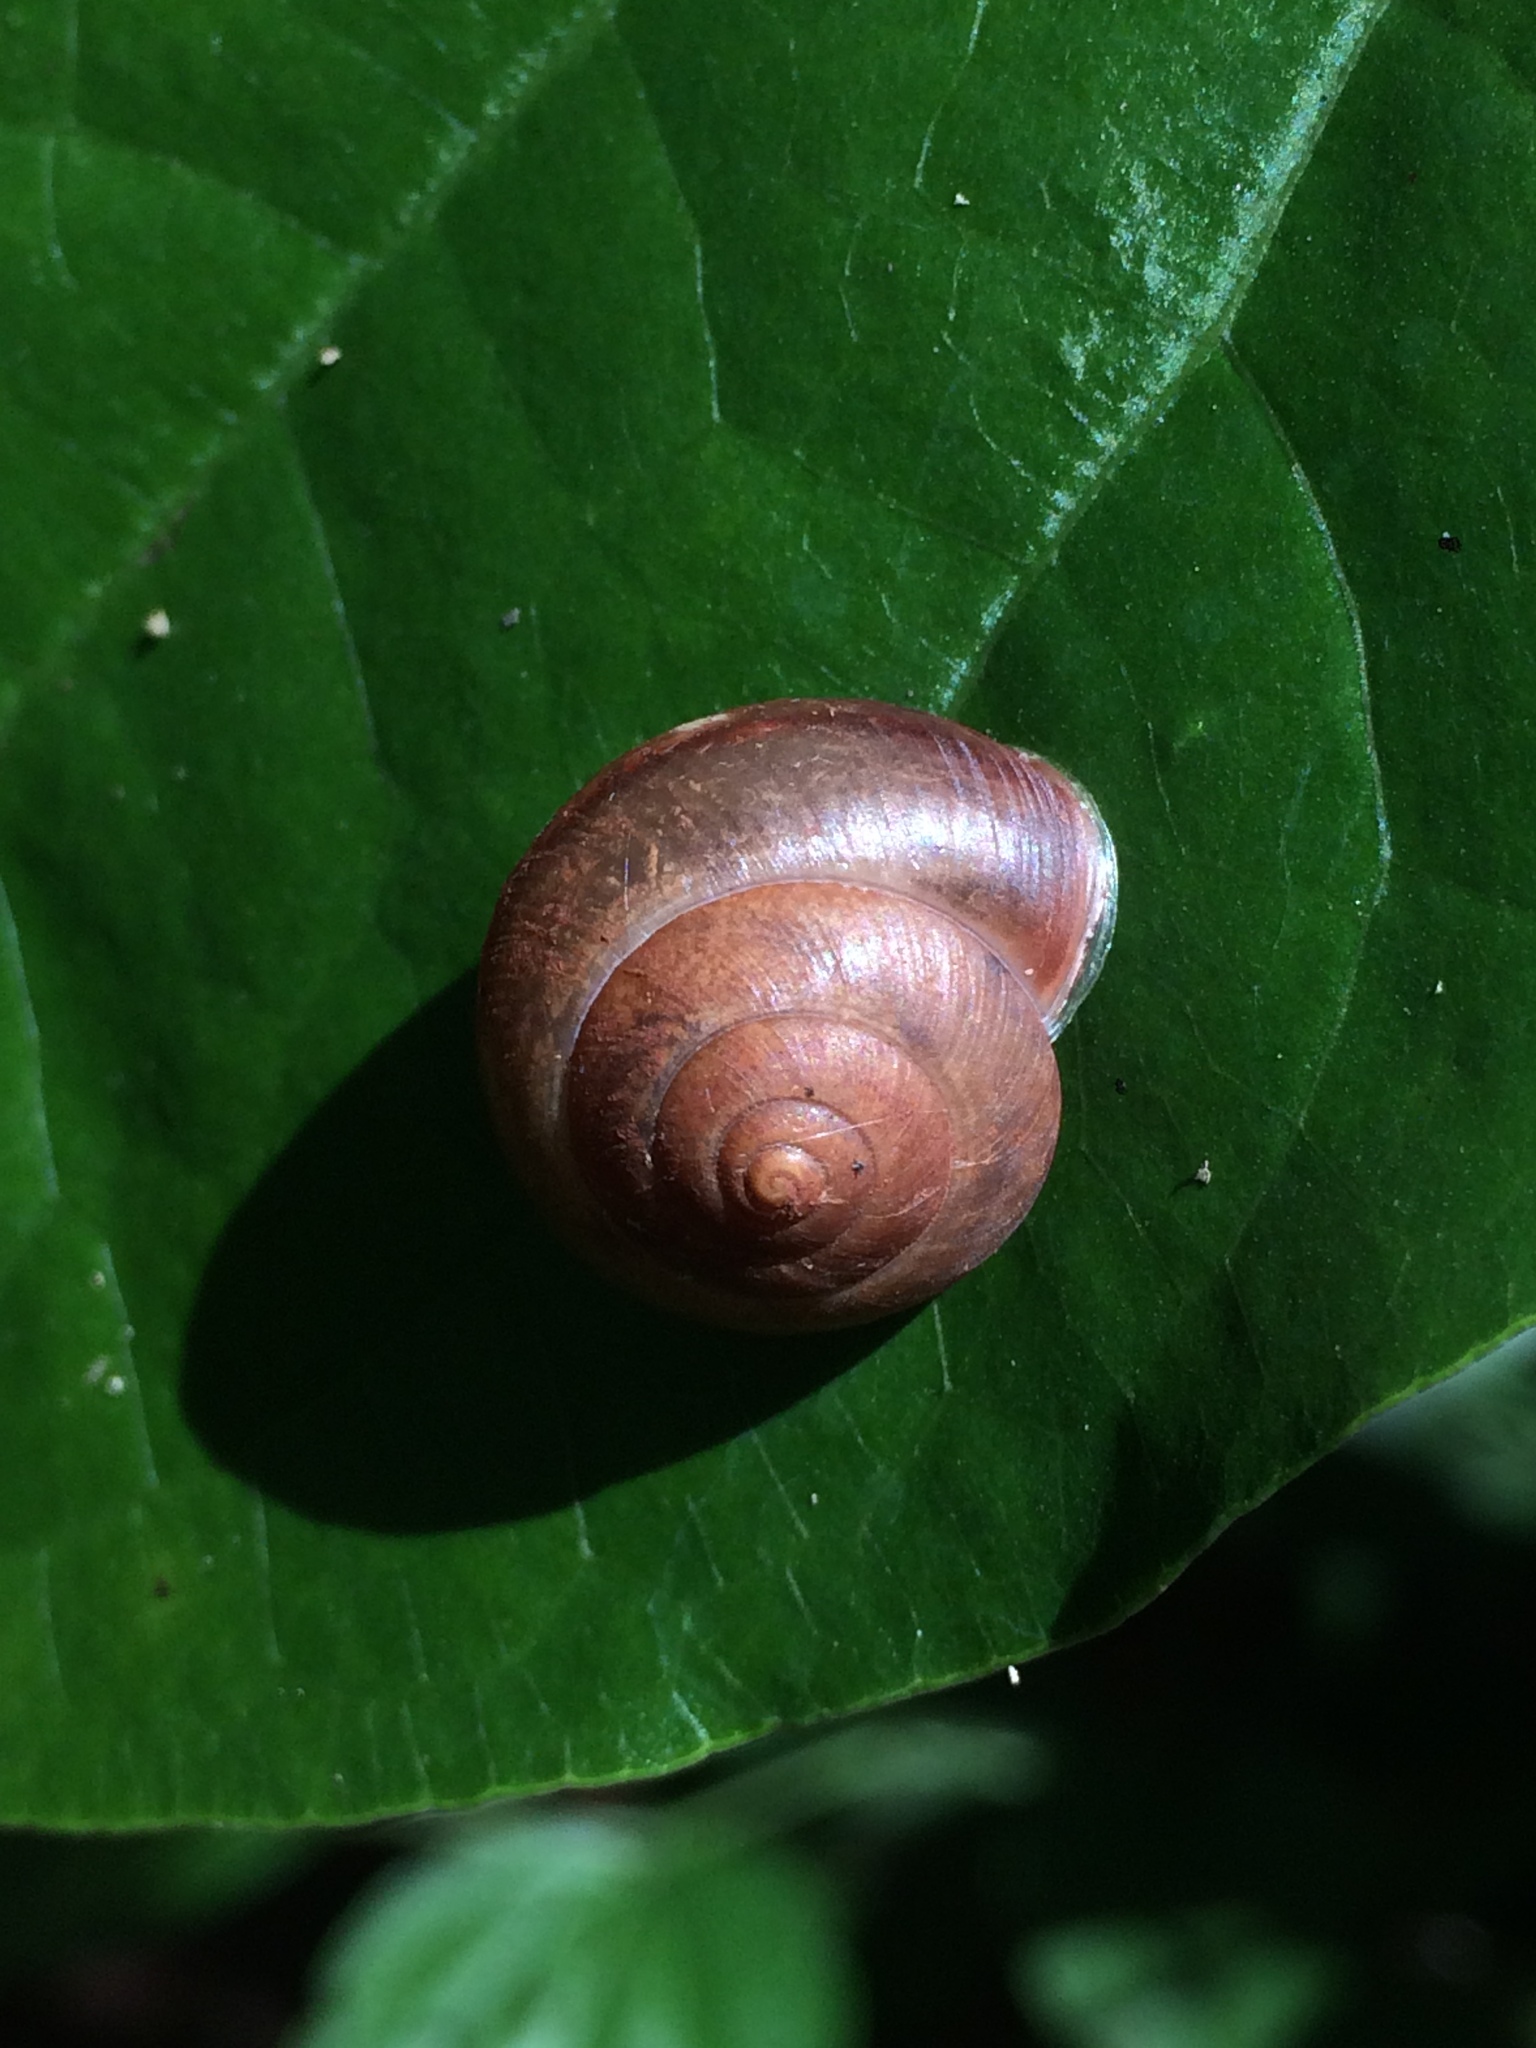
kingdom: Animalia
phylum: Mollusca
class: Gastropoda
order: Stylommatophora
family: Camaenidae
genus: Bradybaena
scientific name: Bradybaena similaris
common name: Asian trampsnail
